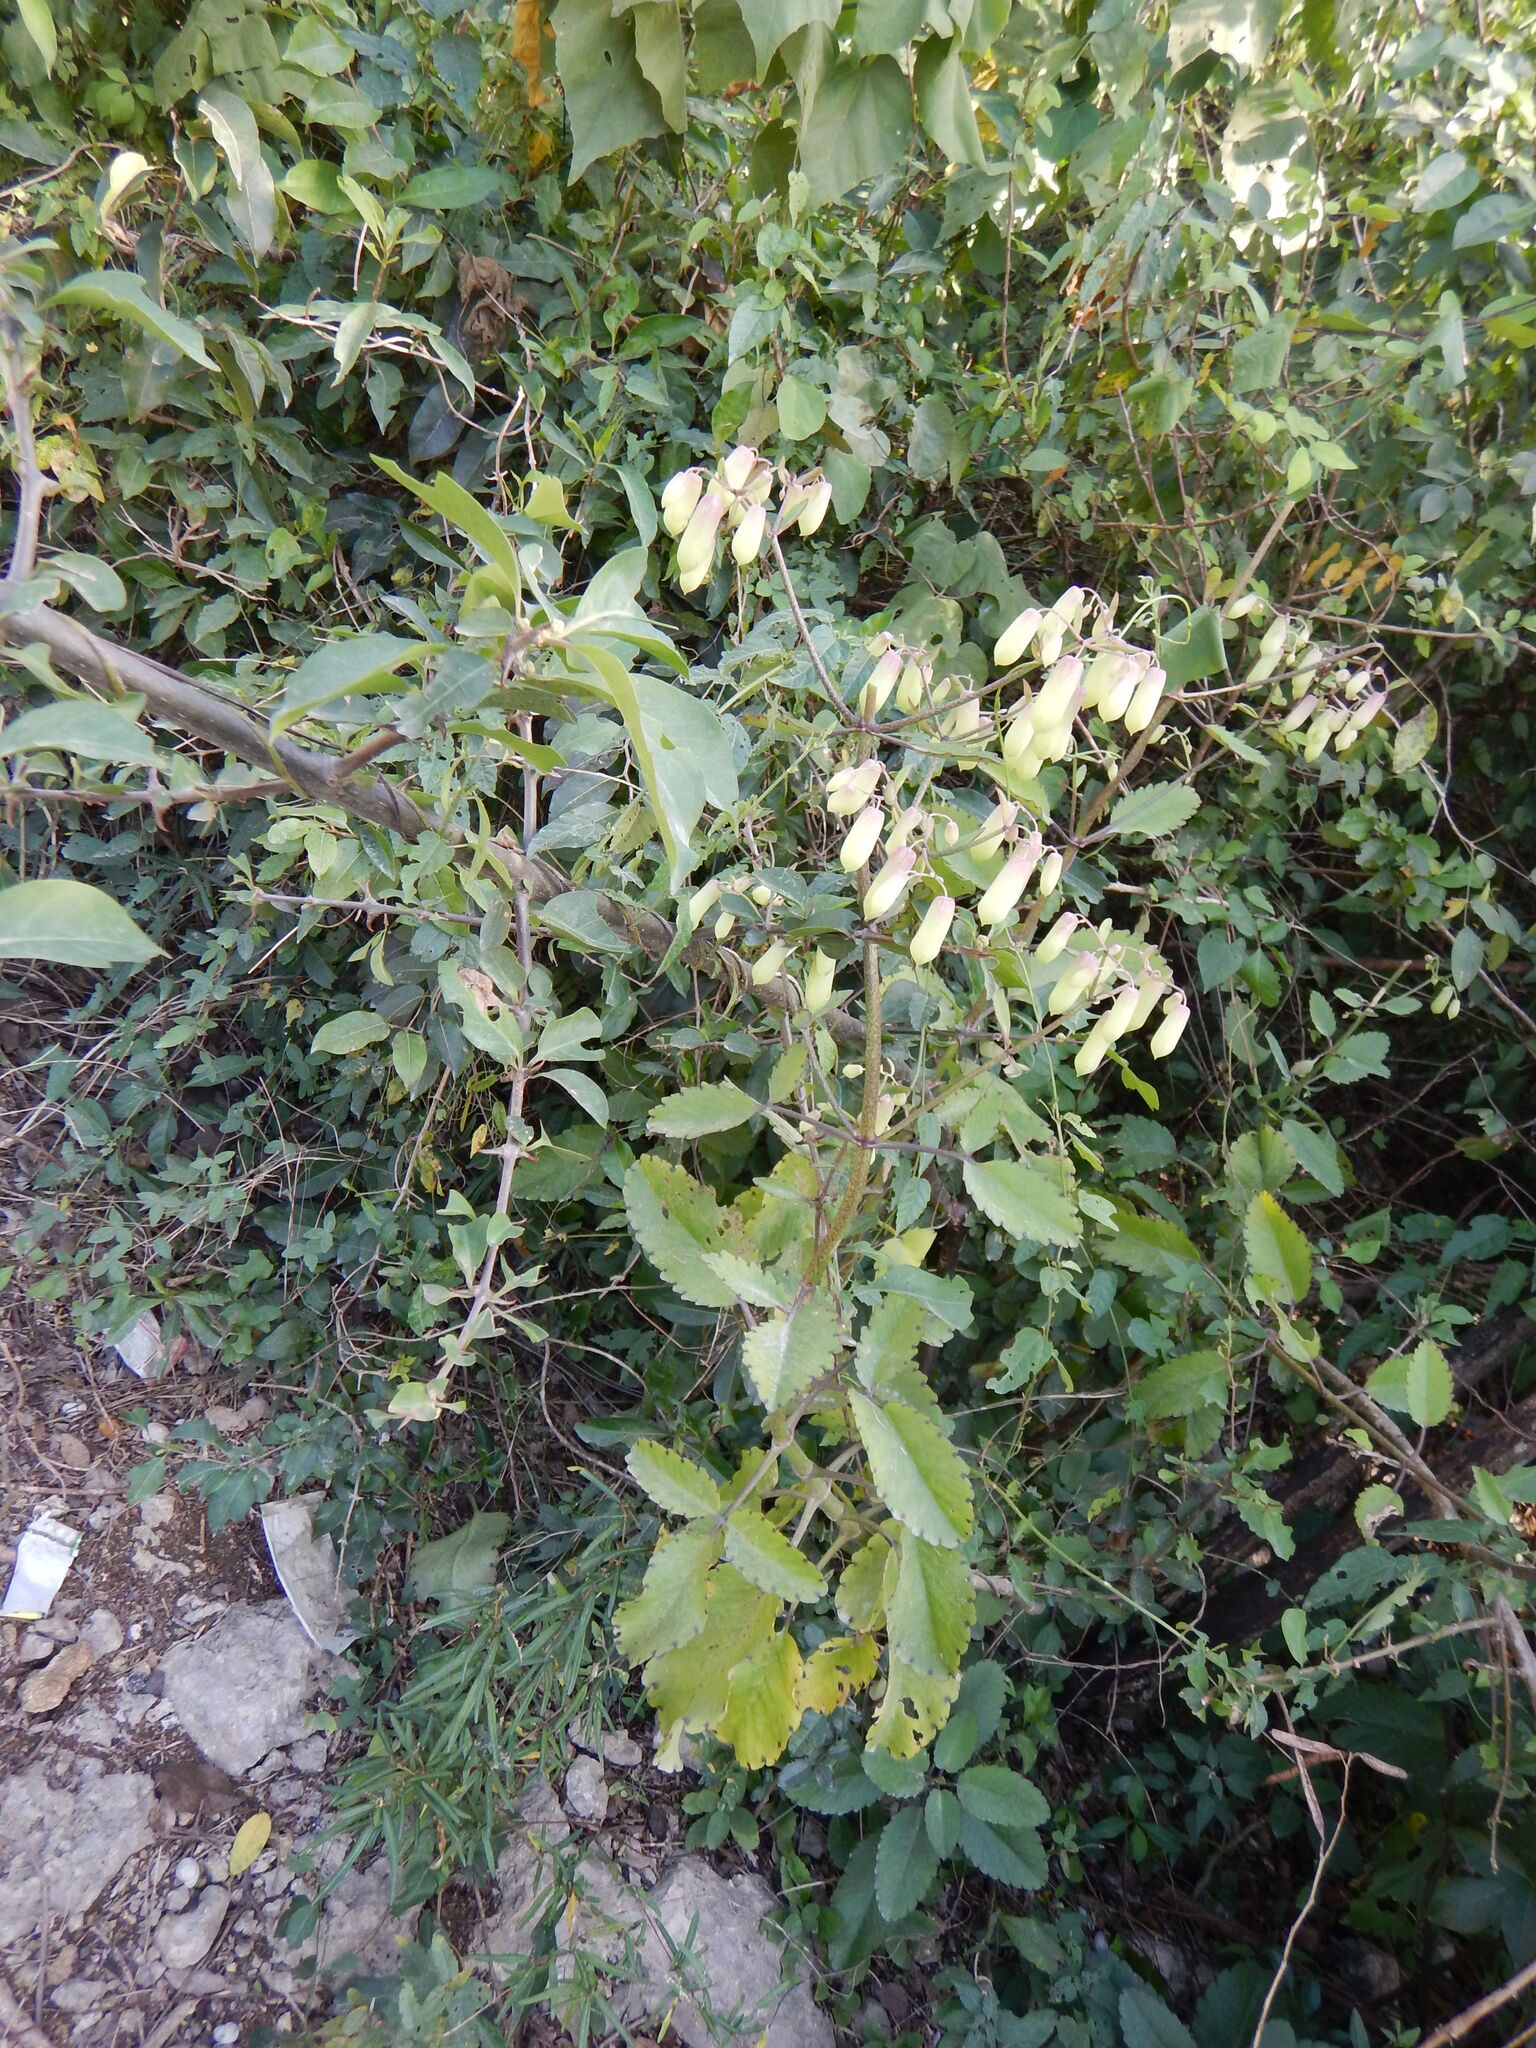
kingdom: Plantae
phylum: Tracheophyta
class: Magnoliopsida
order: Saxifragales
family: Crassulaceae
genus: Kalanchoe
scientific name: Kalanchoe pinnata
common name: Cathedral bells
